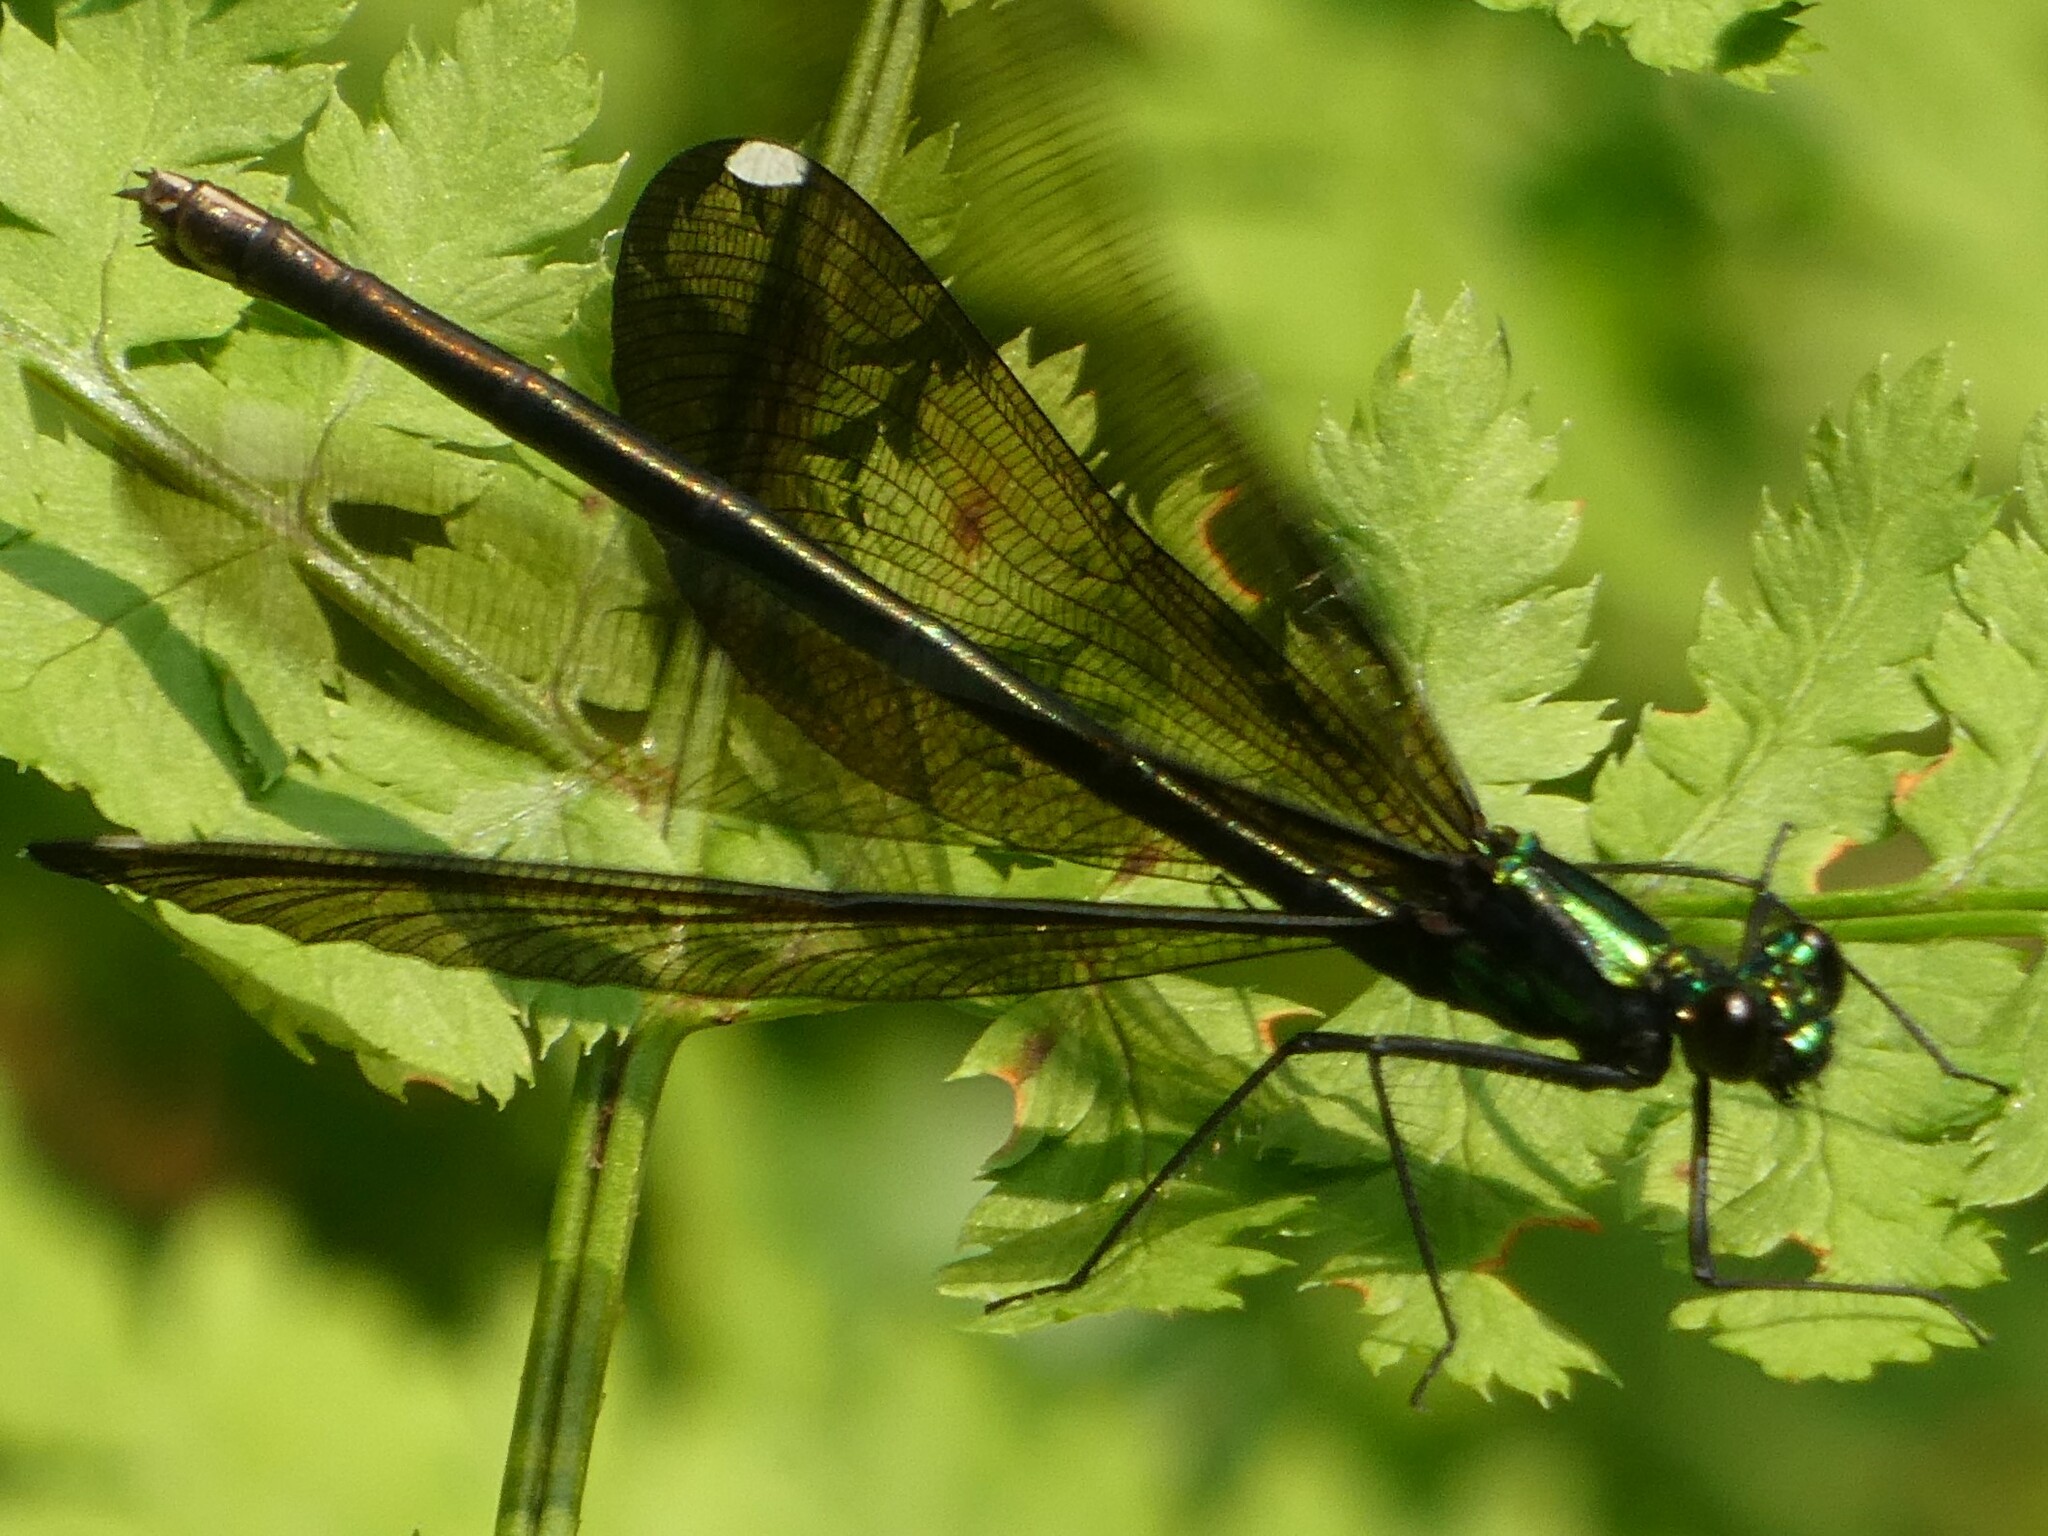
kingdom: Animalia
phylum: Arthropoda
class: Insecta
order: Odonata
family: Calopterygidae
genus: Calopteryx
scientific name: Calopteryx maculata
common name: Ebony jewelwing
